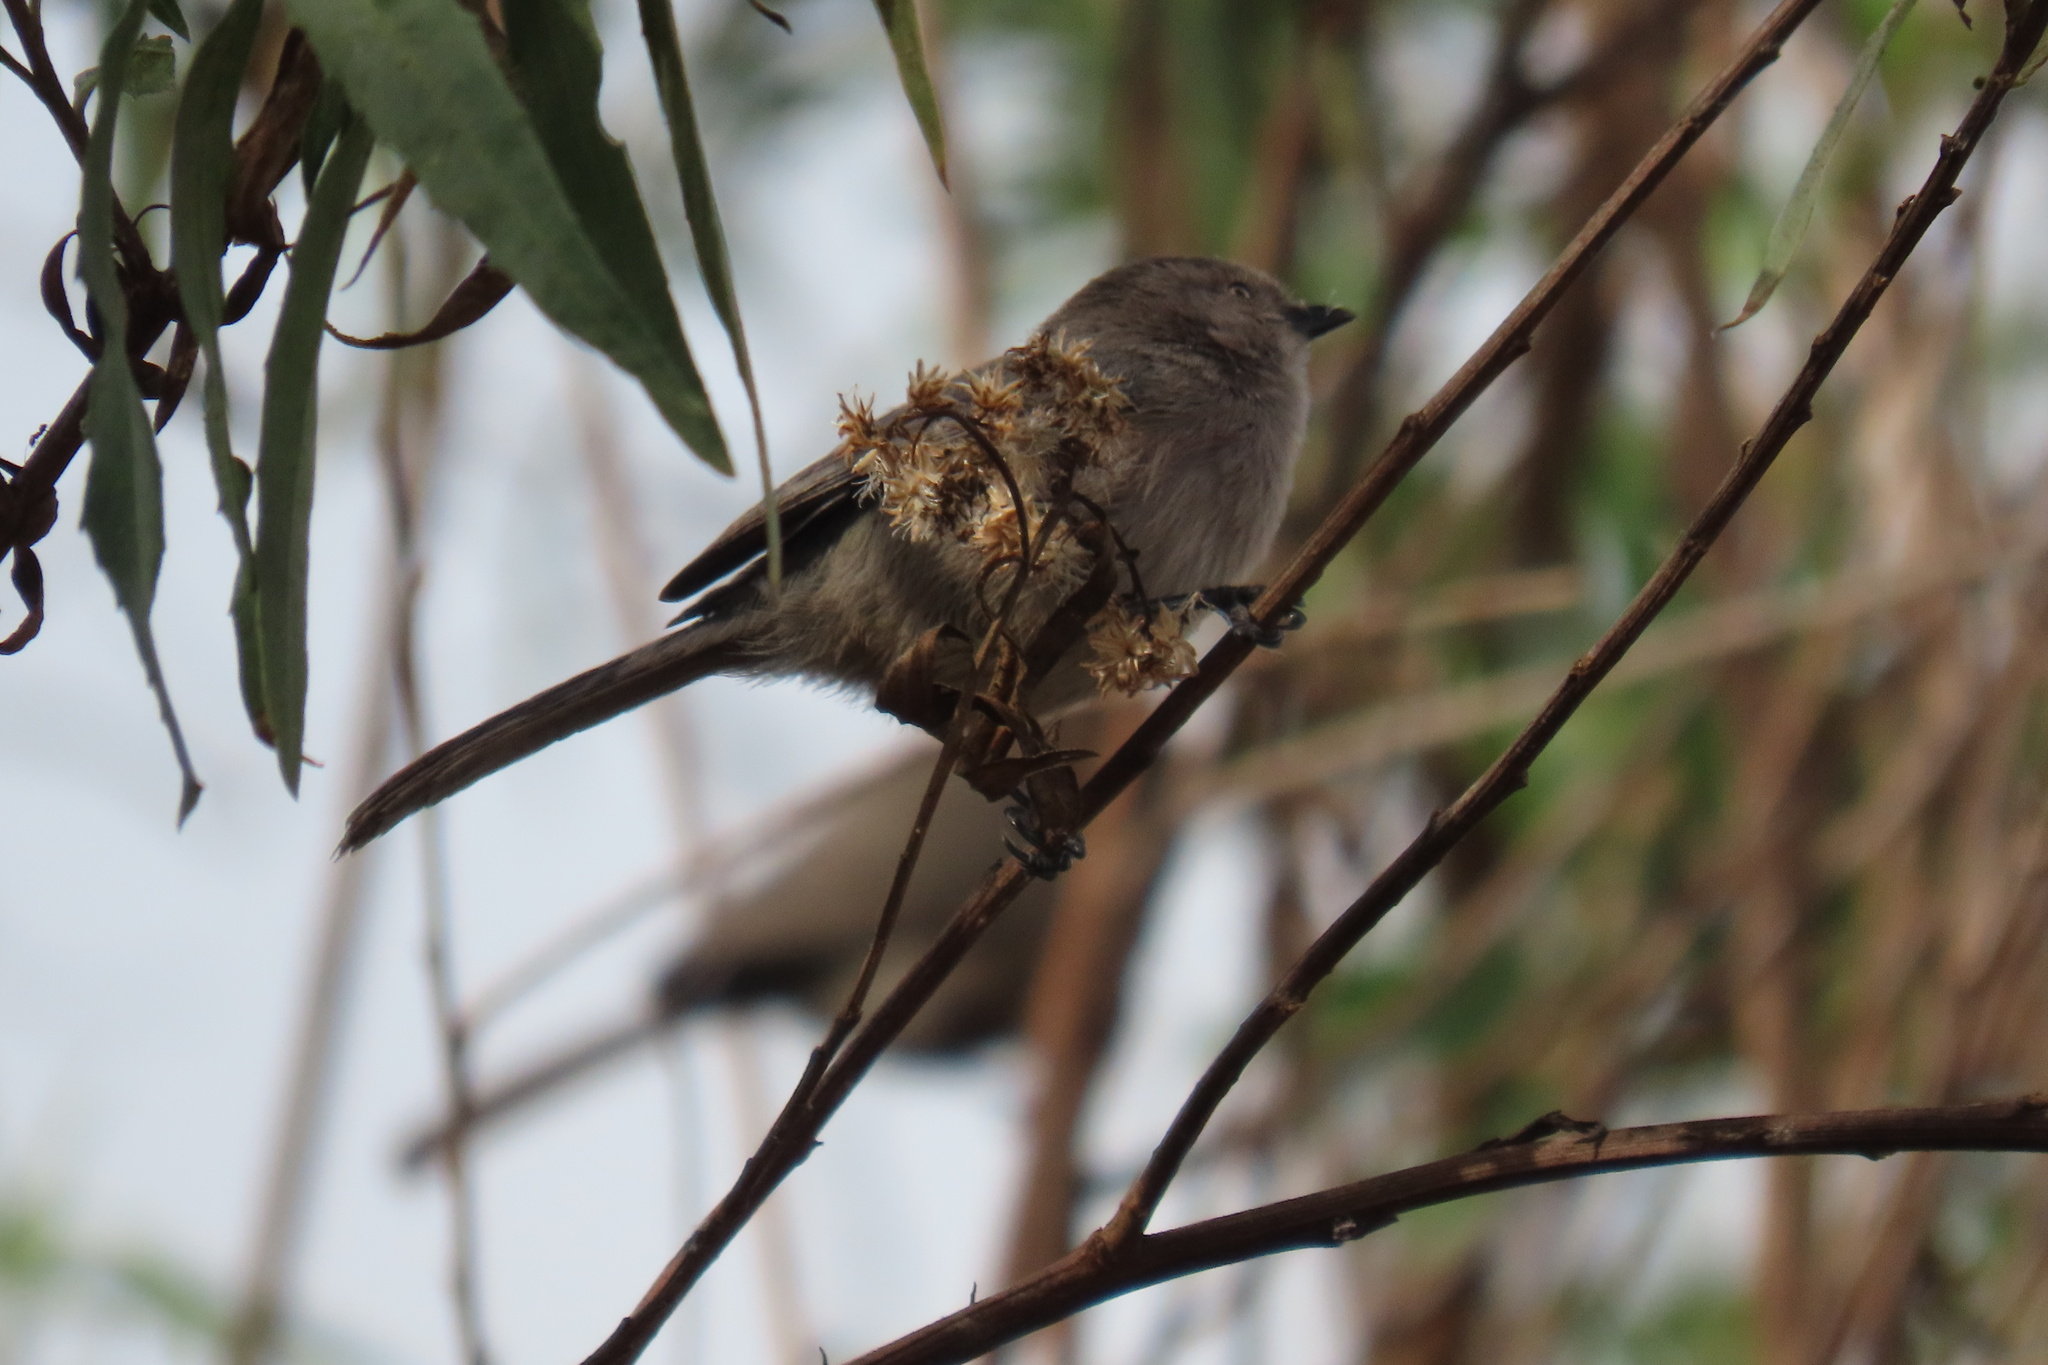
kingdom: Animalia
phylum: Chordata
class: Aves
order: Passeriformes
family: Aegithalidae
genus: Psaltriparus
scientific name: Psaltriparus minimus
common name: American bushtit
